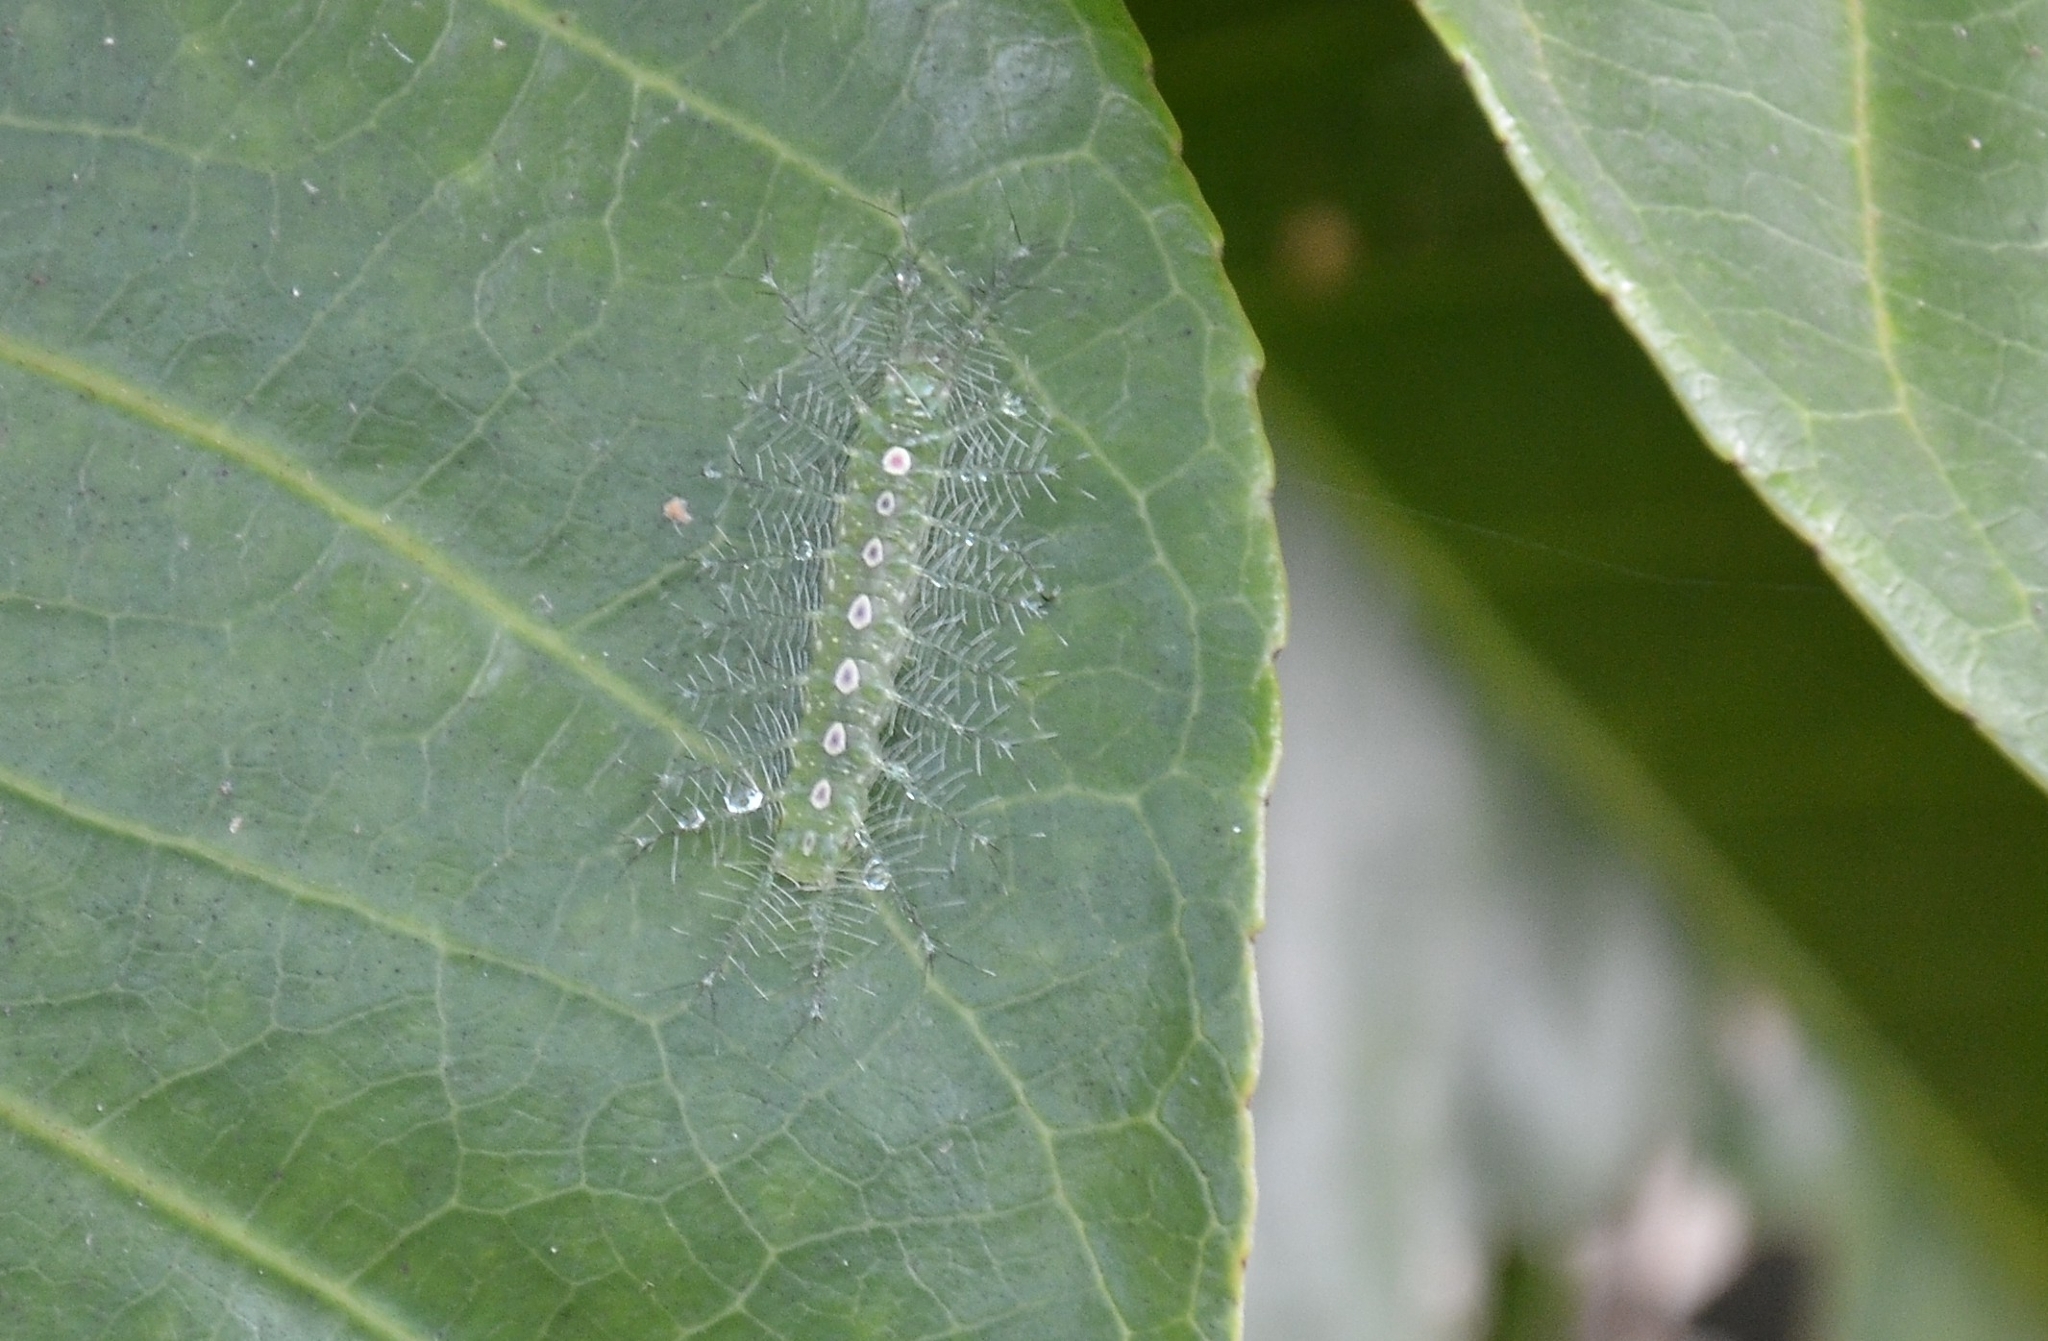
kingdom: Animalia
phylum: Arthropoda
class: Insecta
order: Lepidoptera
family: Nymphalidae
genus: Tanaecia
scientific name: Tanaecia lepidea
